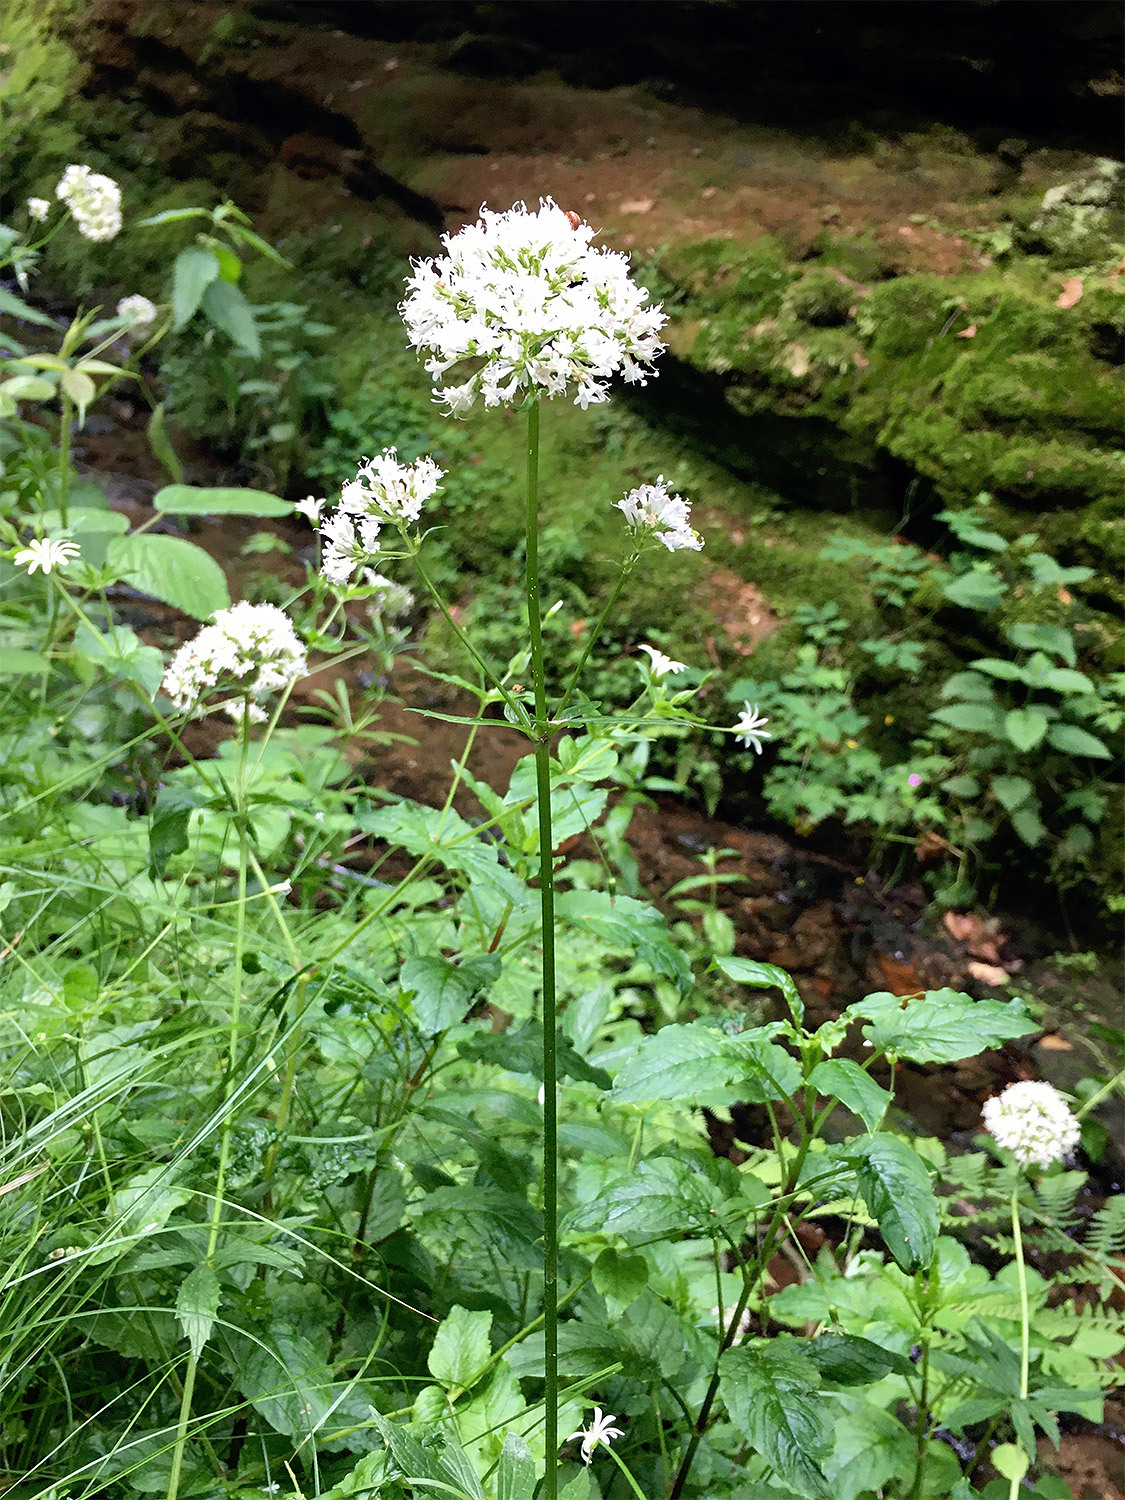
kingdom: Plantae
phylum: Tracheophyta
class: Magnoliopsida
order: Dipsacales
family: Caprifoliaceae
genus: Valeriana
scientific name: Valeriana excelsa
